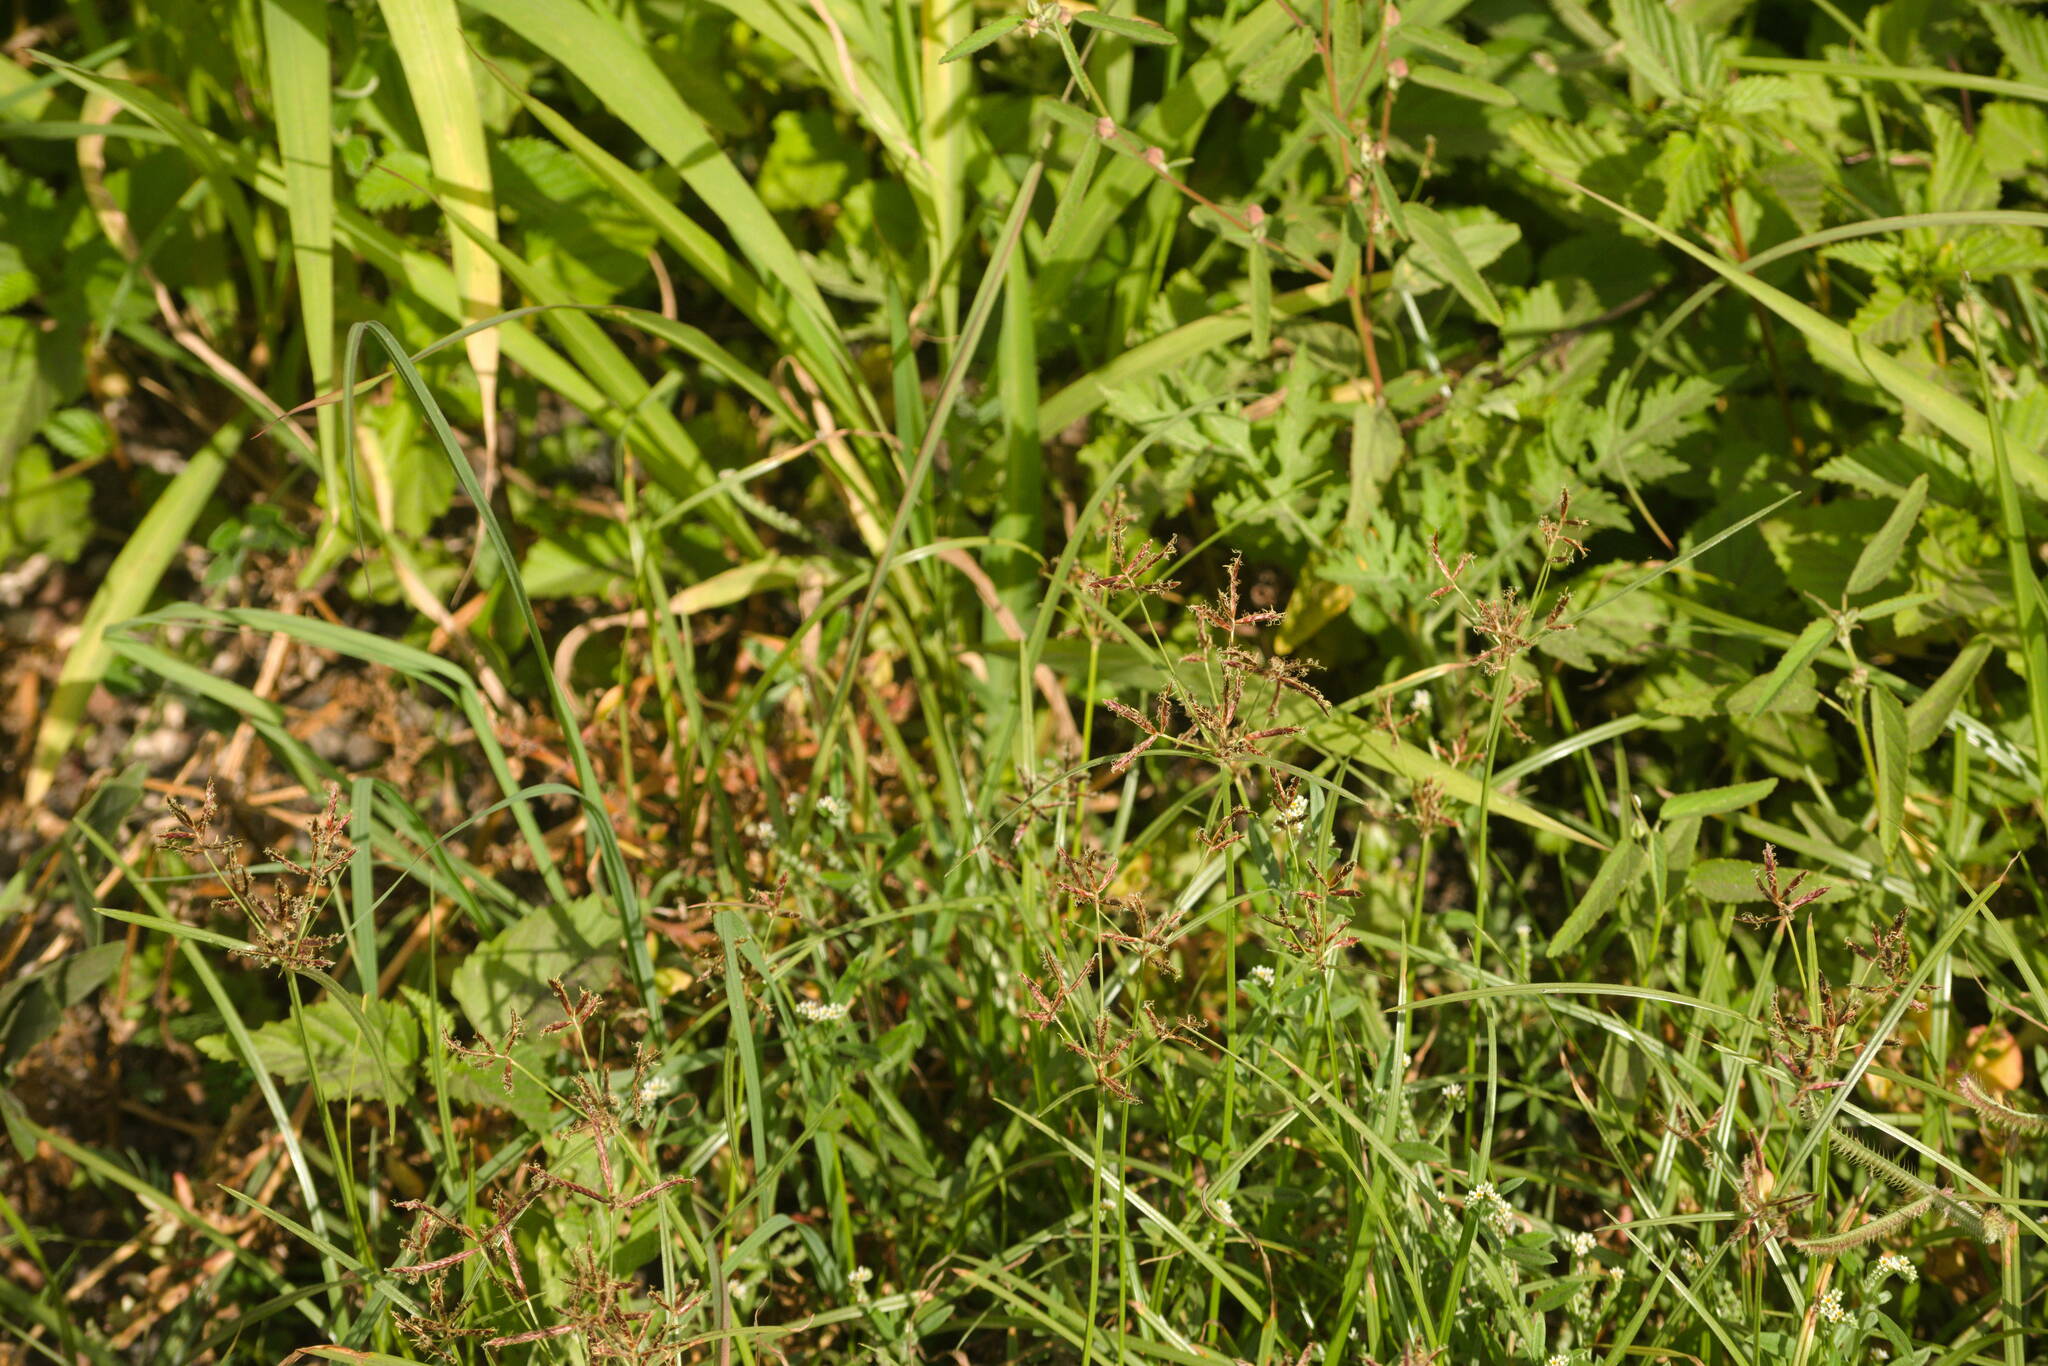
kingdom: Plantae
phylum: Tracheophyta
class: Liliopsida
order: Poales
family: Cyperaceae
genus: Cyperus
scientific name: Cyperus rotundus
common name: Nutgrass
